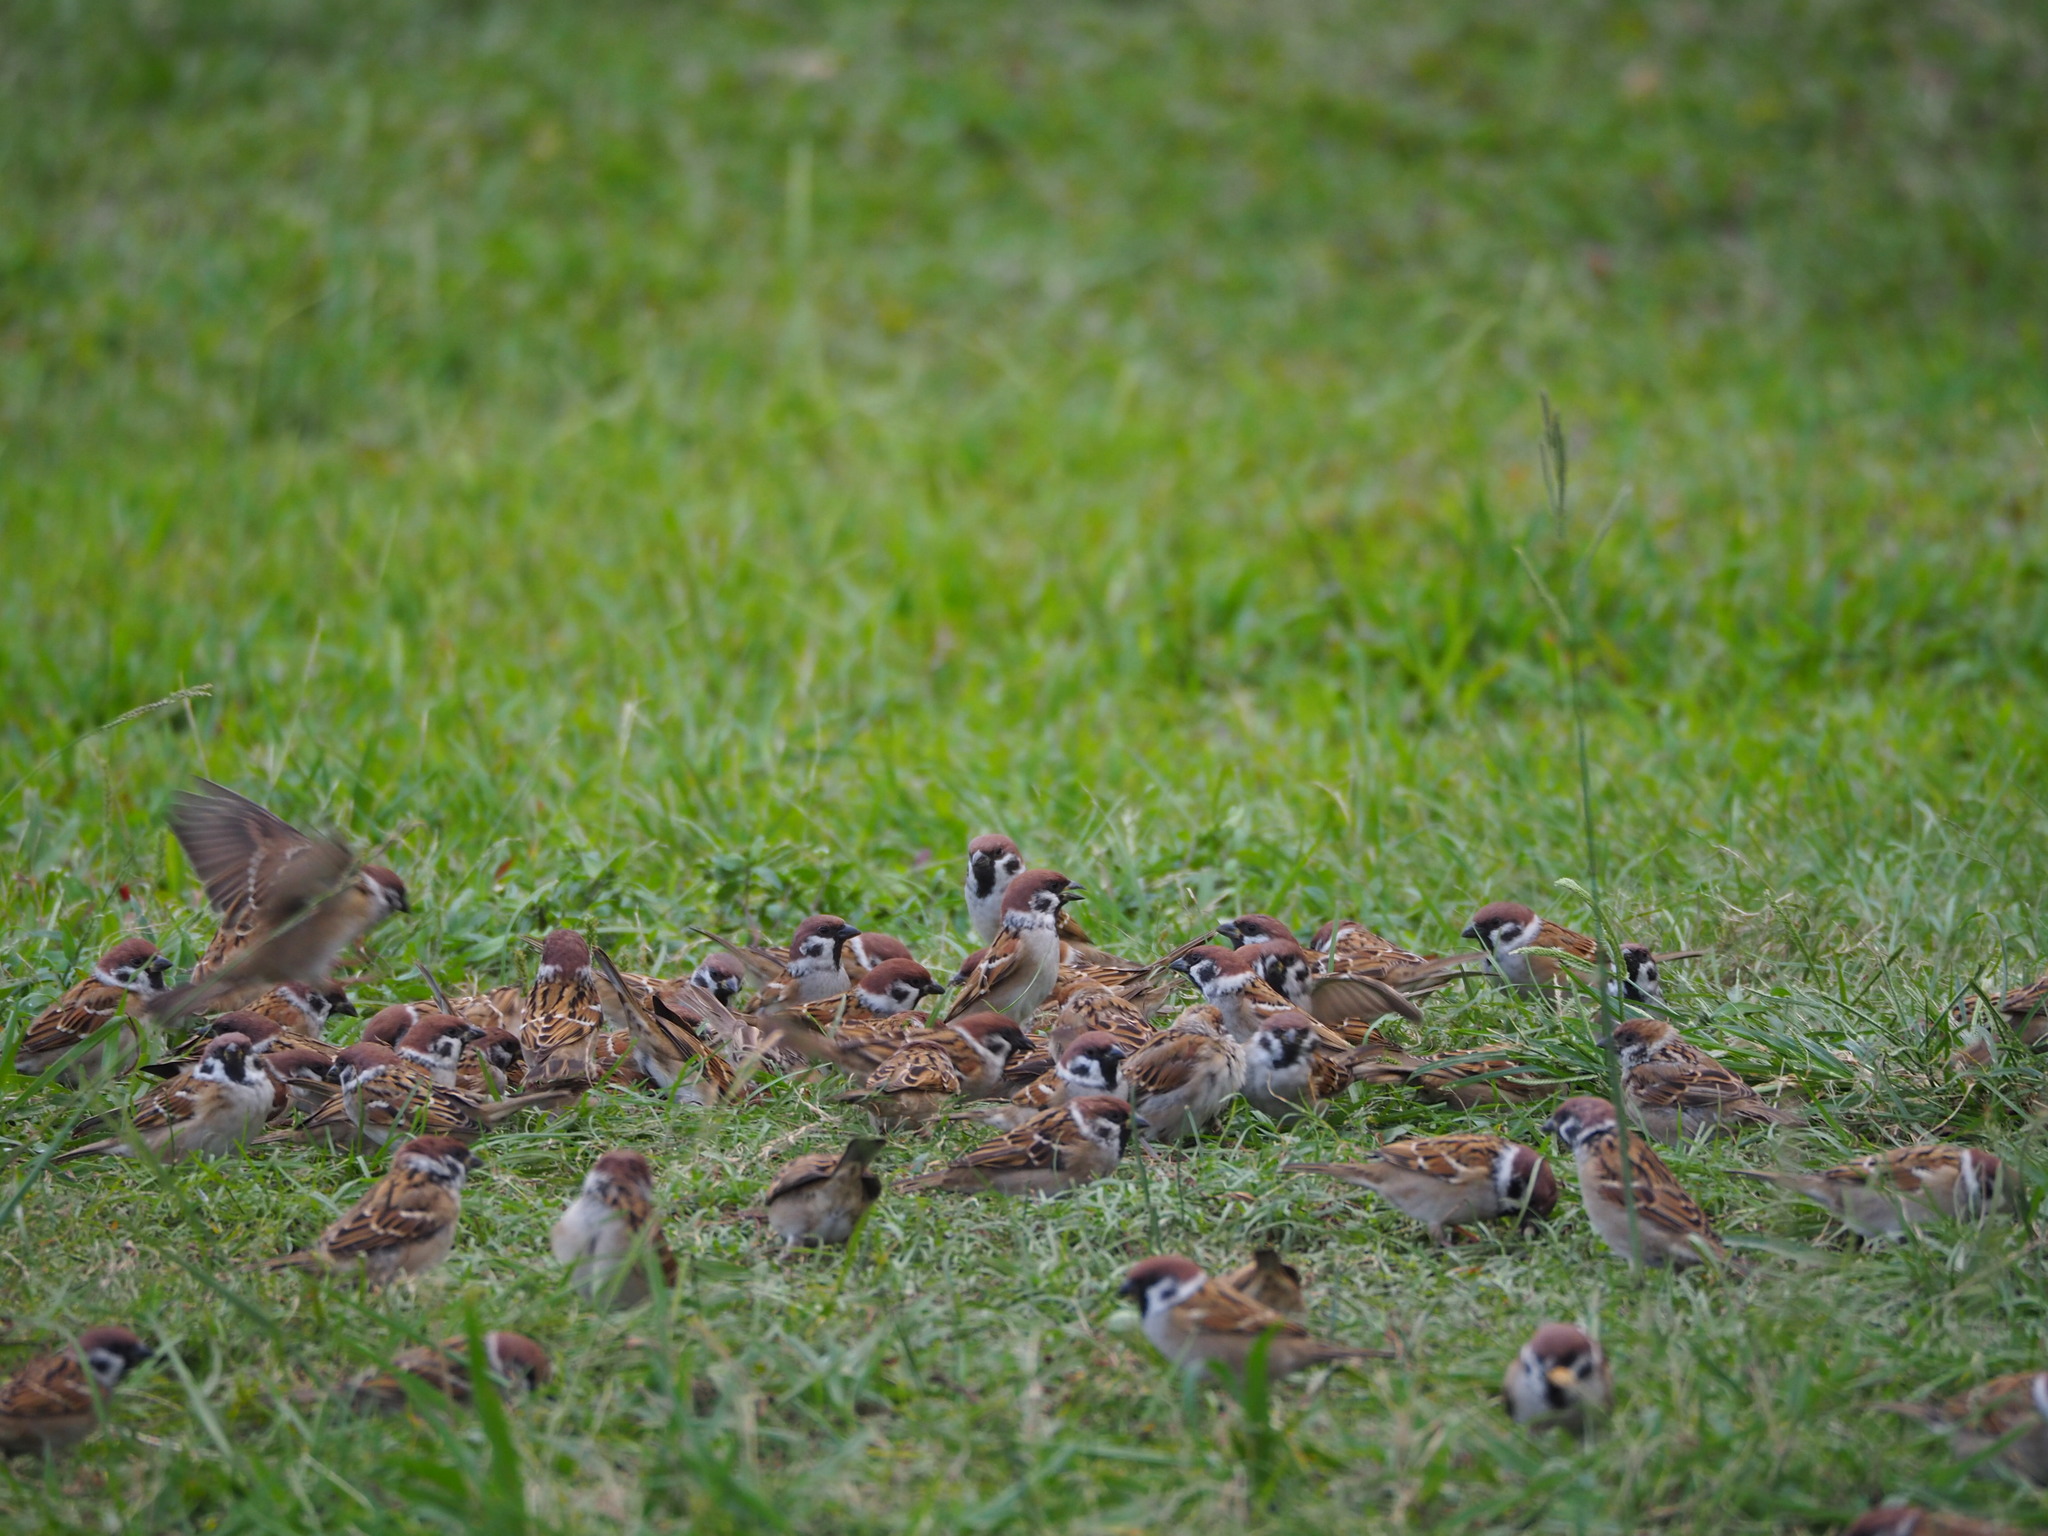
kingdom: Animalia
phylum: Chordata
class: Aves
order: Passeriformes
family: Passeridae
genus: Passer
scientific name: Passer montanus
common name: Eurasian tree sparrow
